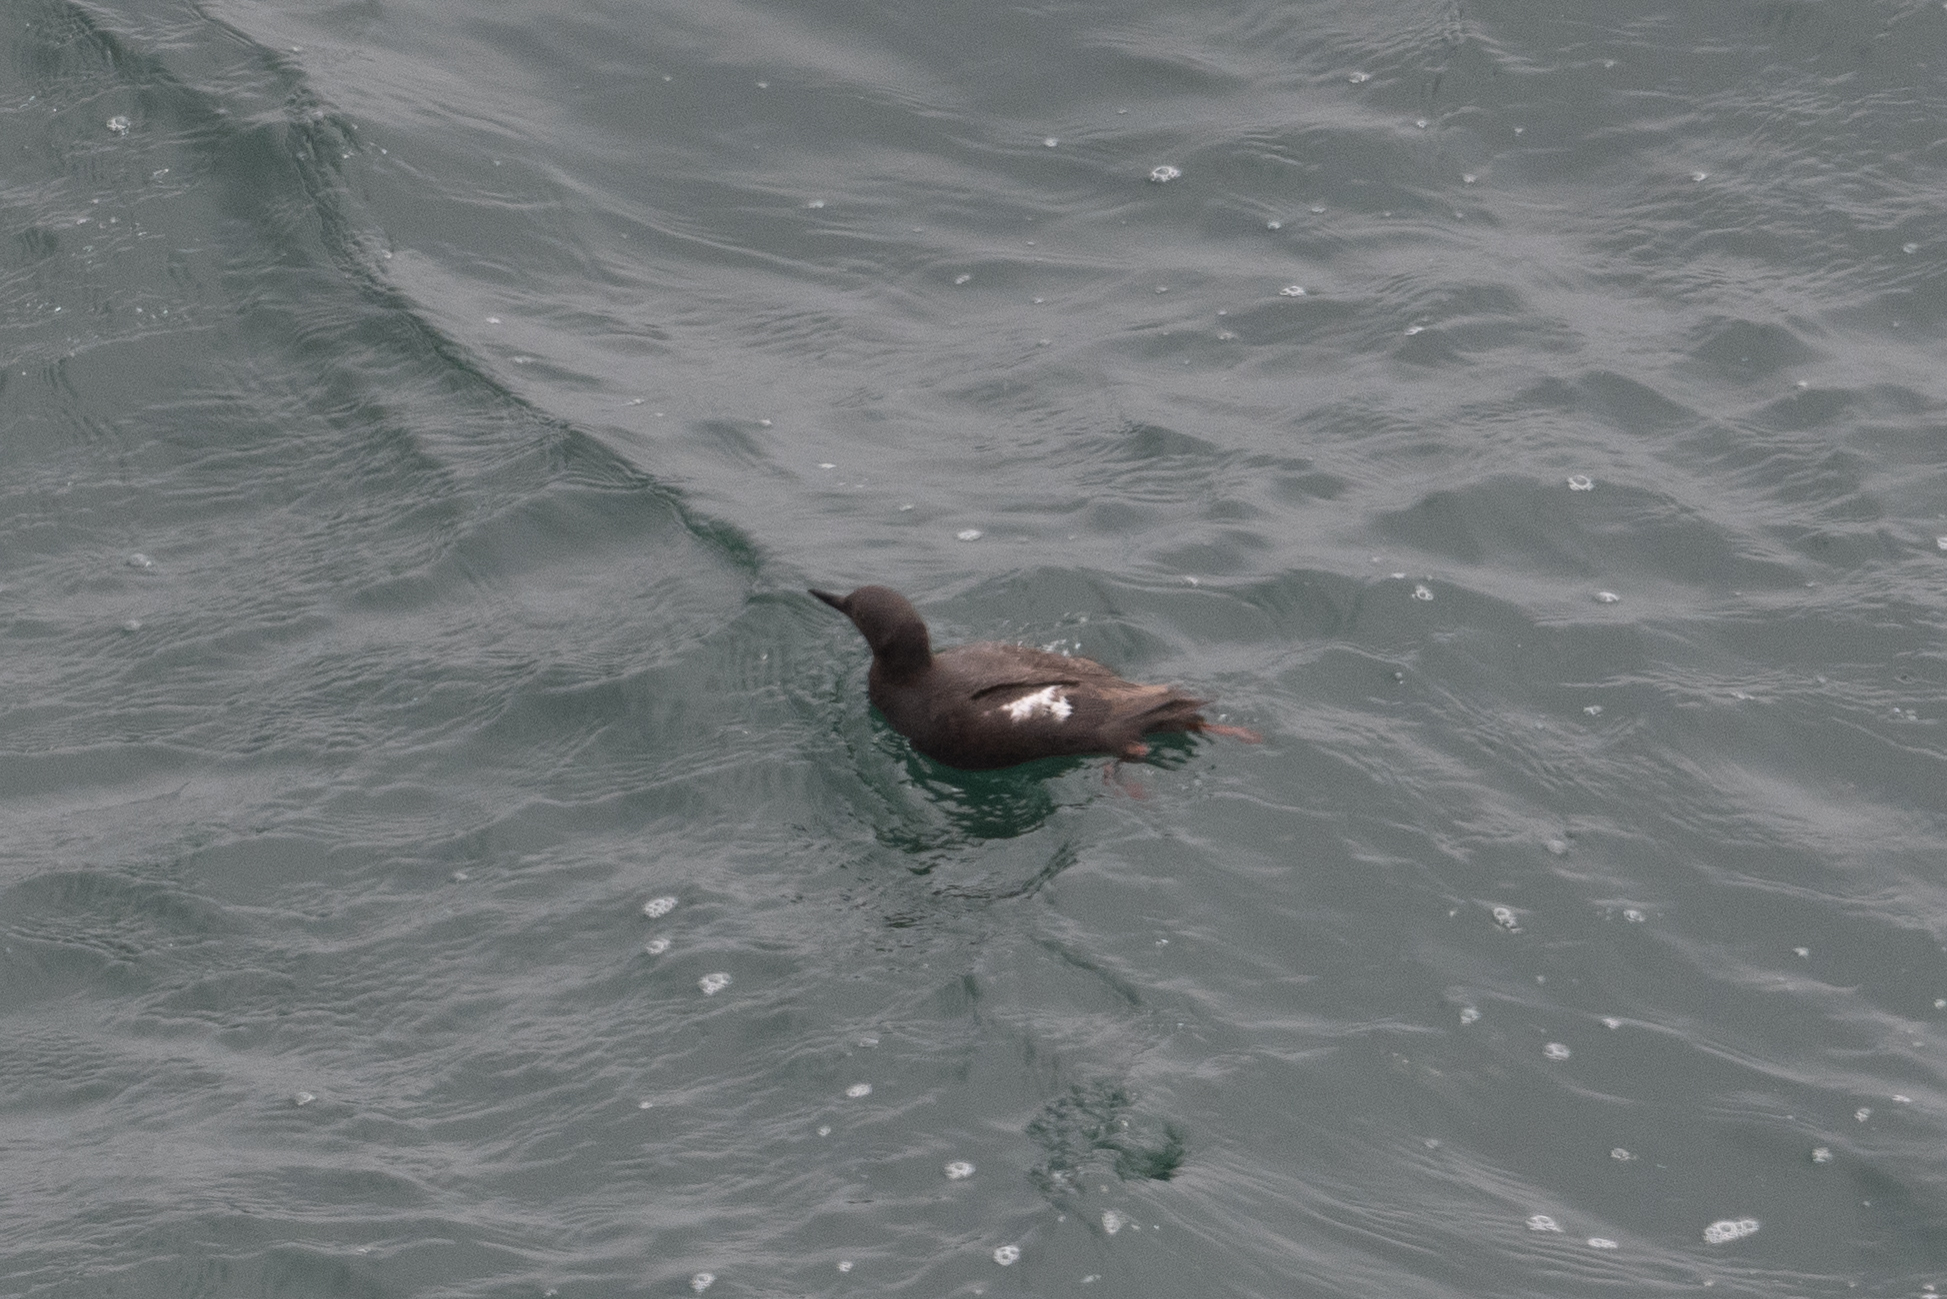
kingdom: Animalia
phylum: Chordata
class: Aves
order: Charadriiformes
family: Alcidae
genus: Cepphus
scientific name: Cepphus columba
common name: Pigeon guillemot
